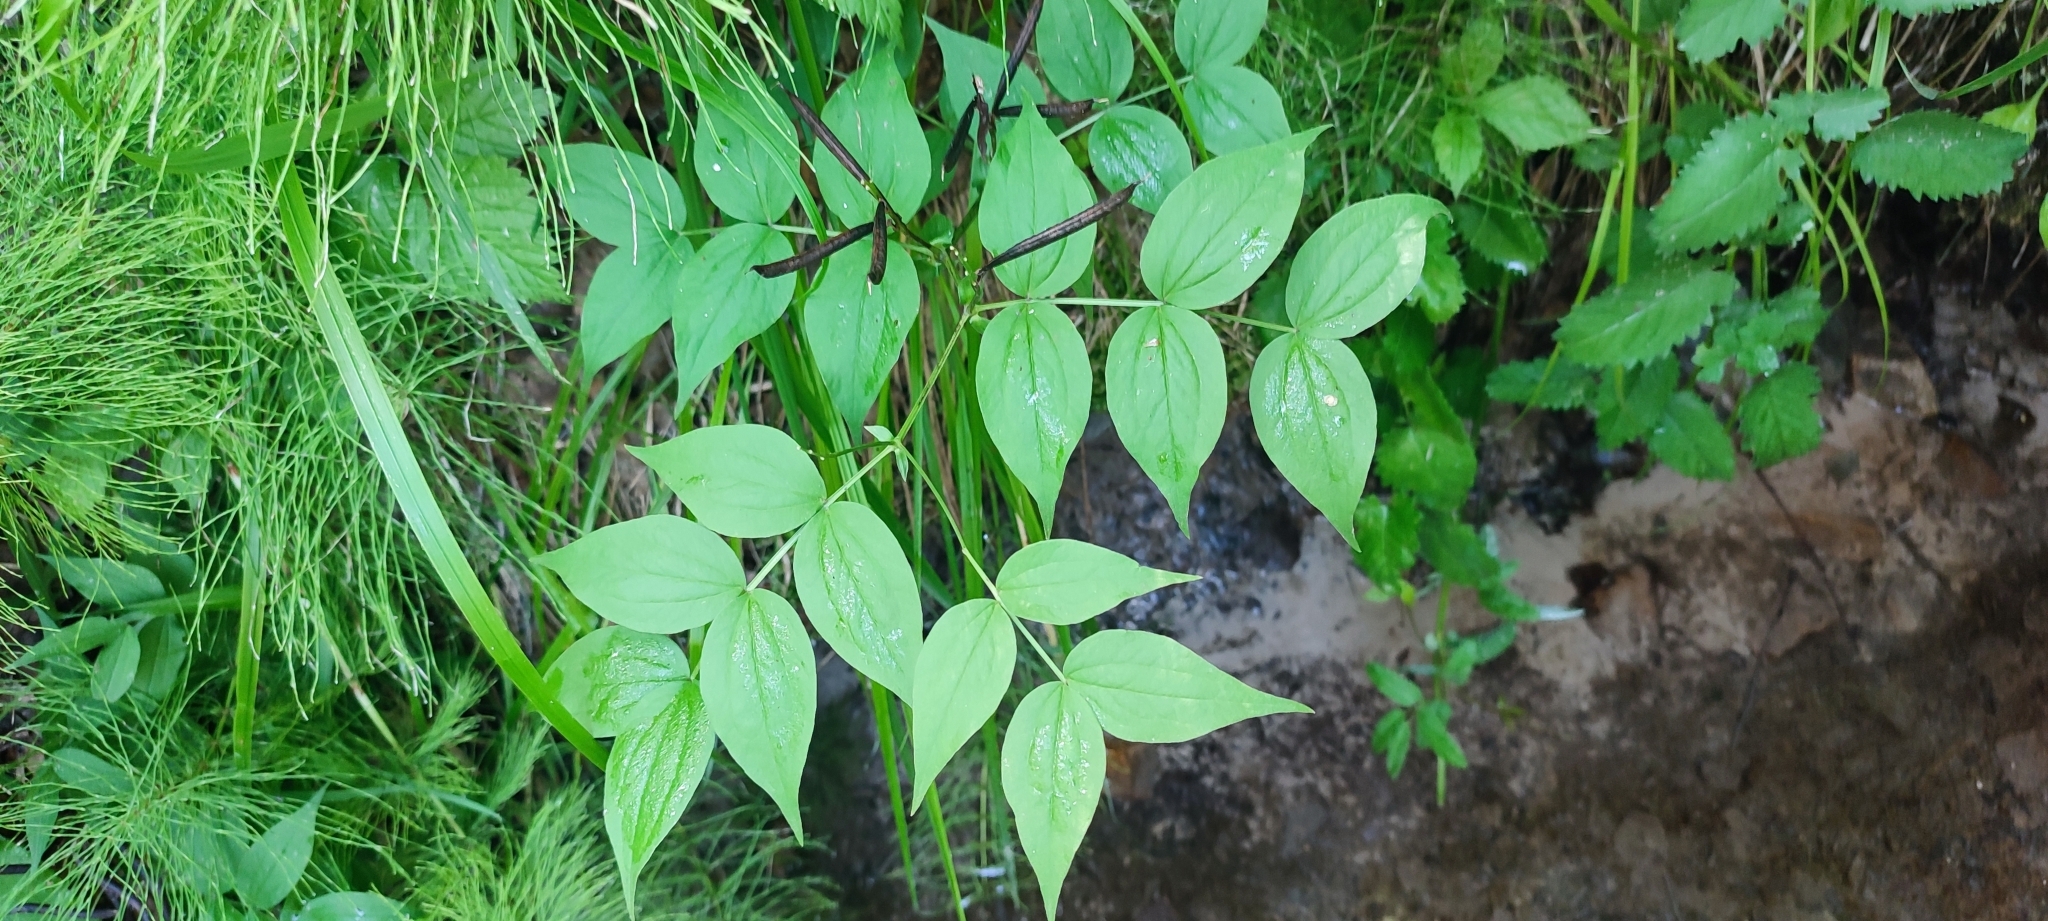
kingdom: Plantae
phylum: Tracheophyta
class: Magnoliopsida
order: Fabales
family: Fabaceae
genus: Lathyrus
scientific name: Lathyrus vernus
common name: Spring pea
